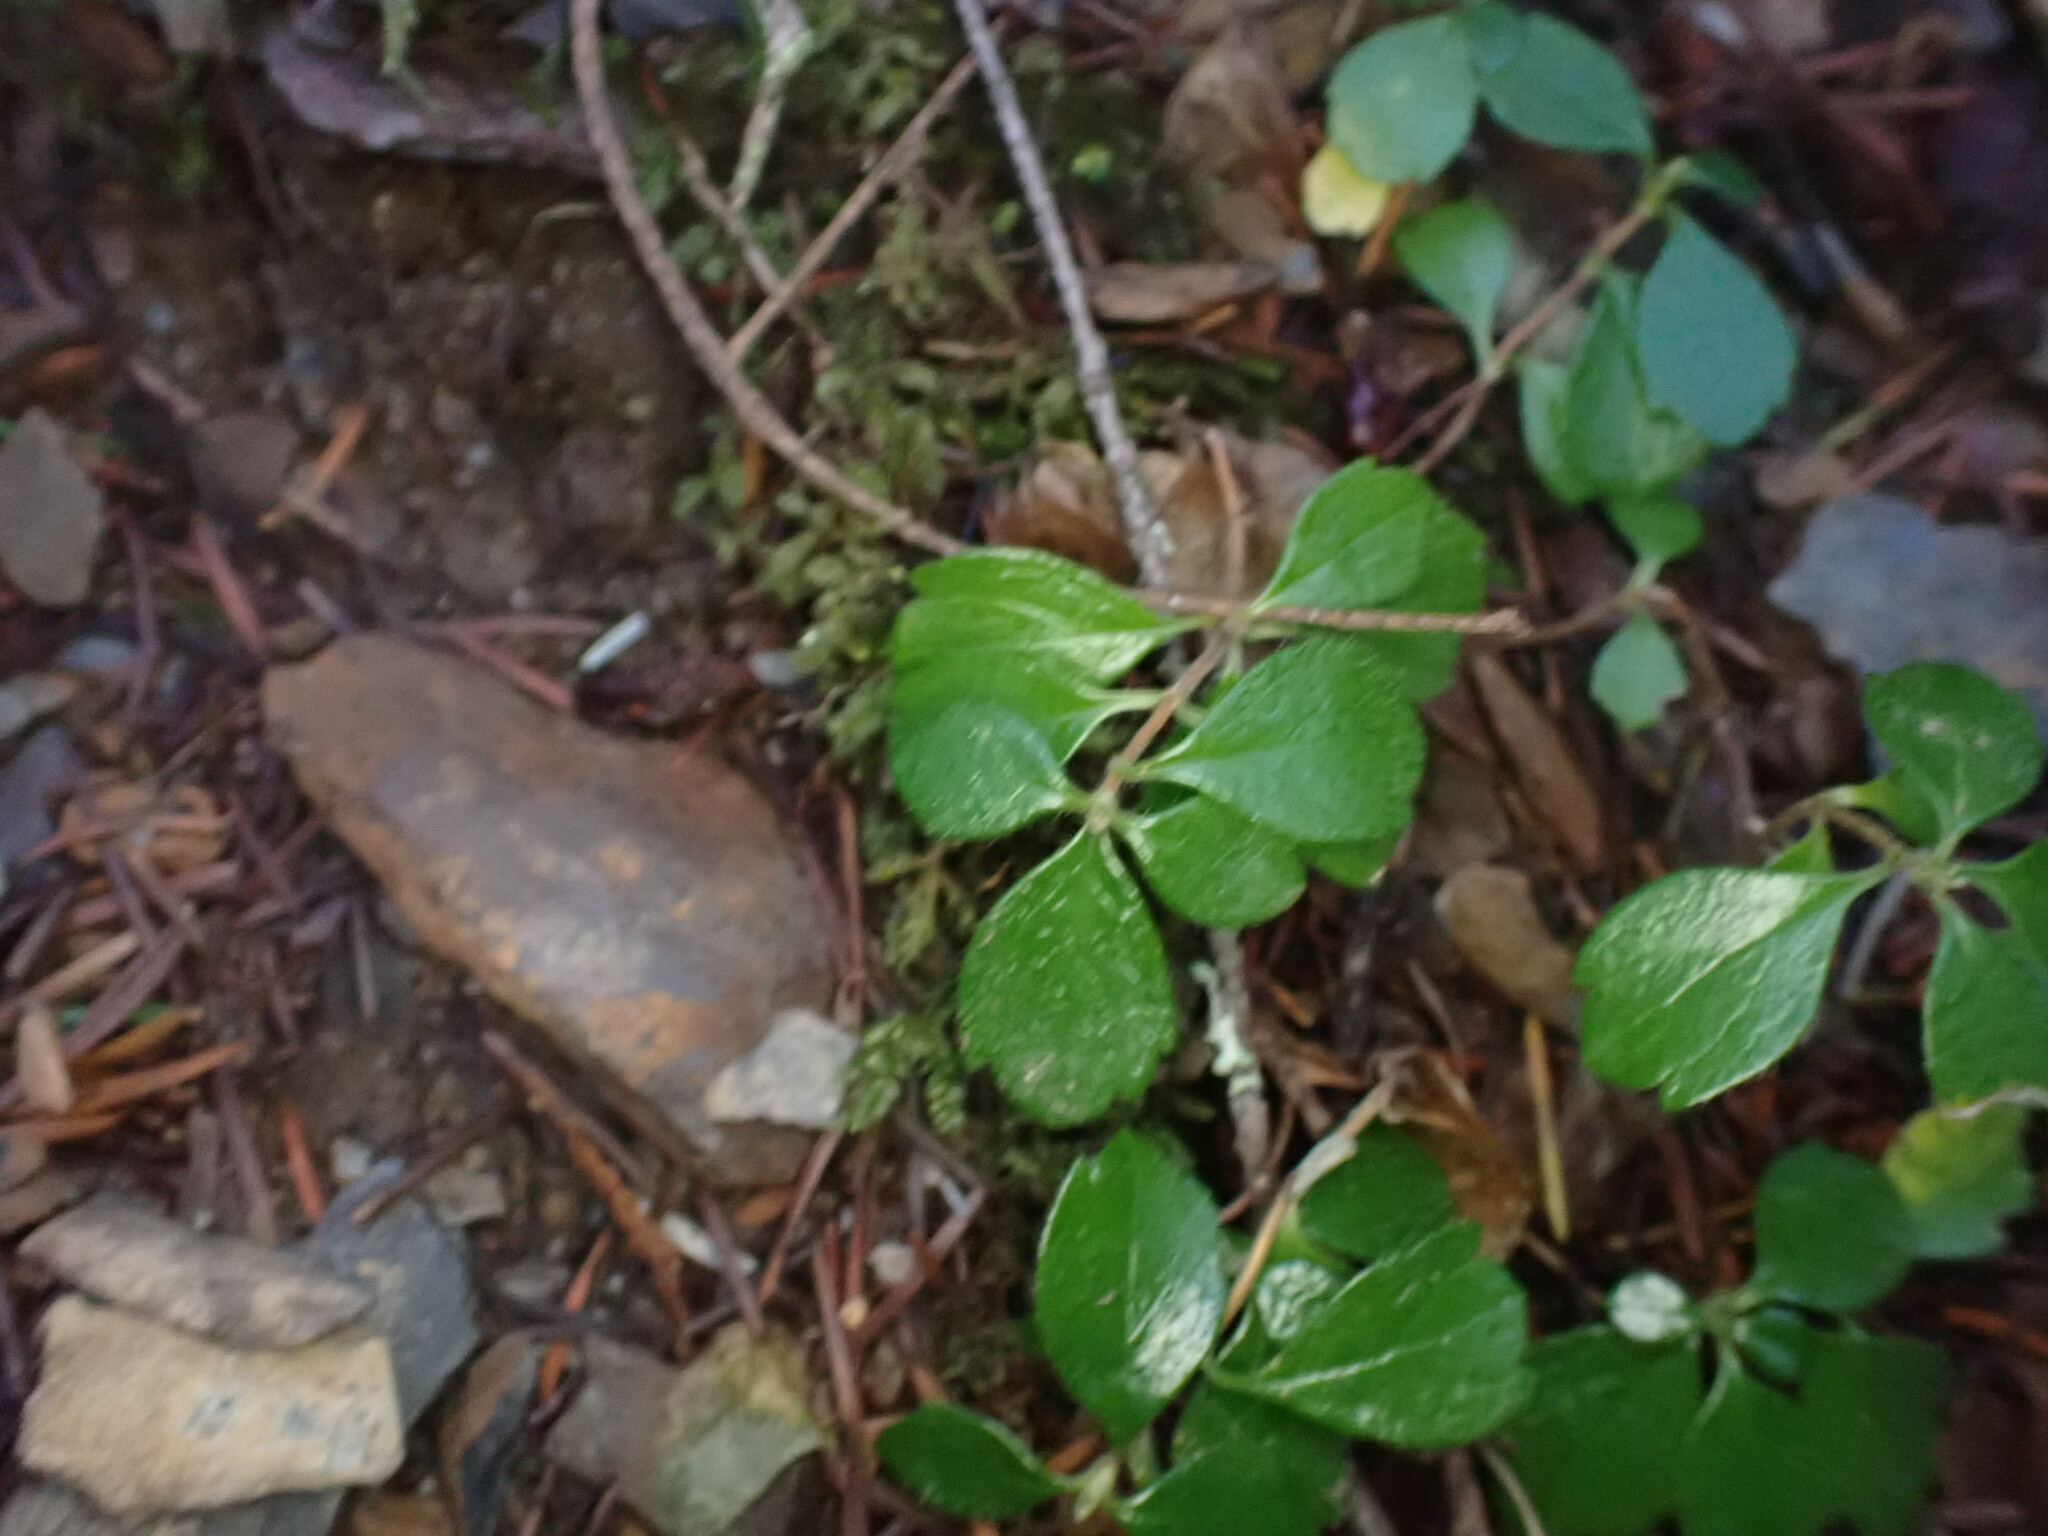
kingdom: Plantae
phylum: Tracheophyta
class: Magnoliopsida
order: Dipsacales
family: Caprifoliaceae
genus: Linnaea
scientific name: Linnaea borealis
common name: Twinflower
